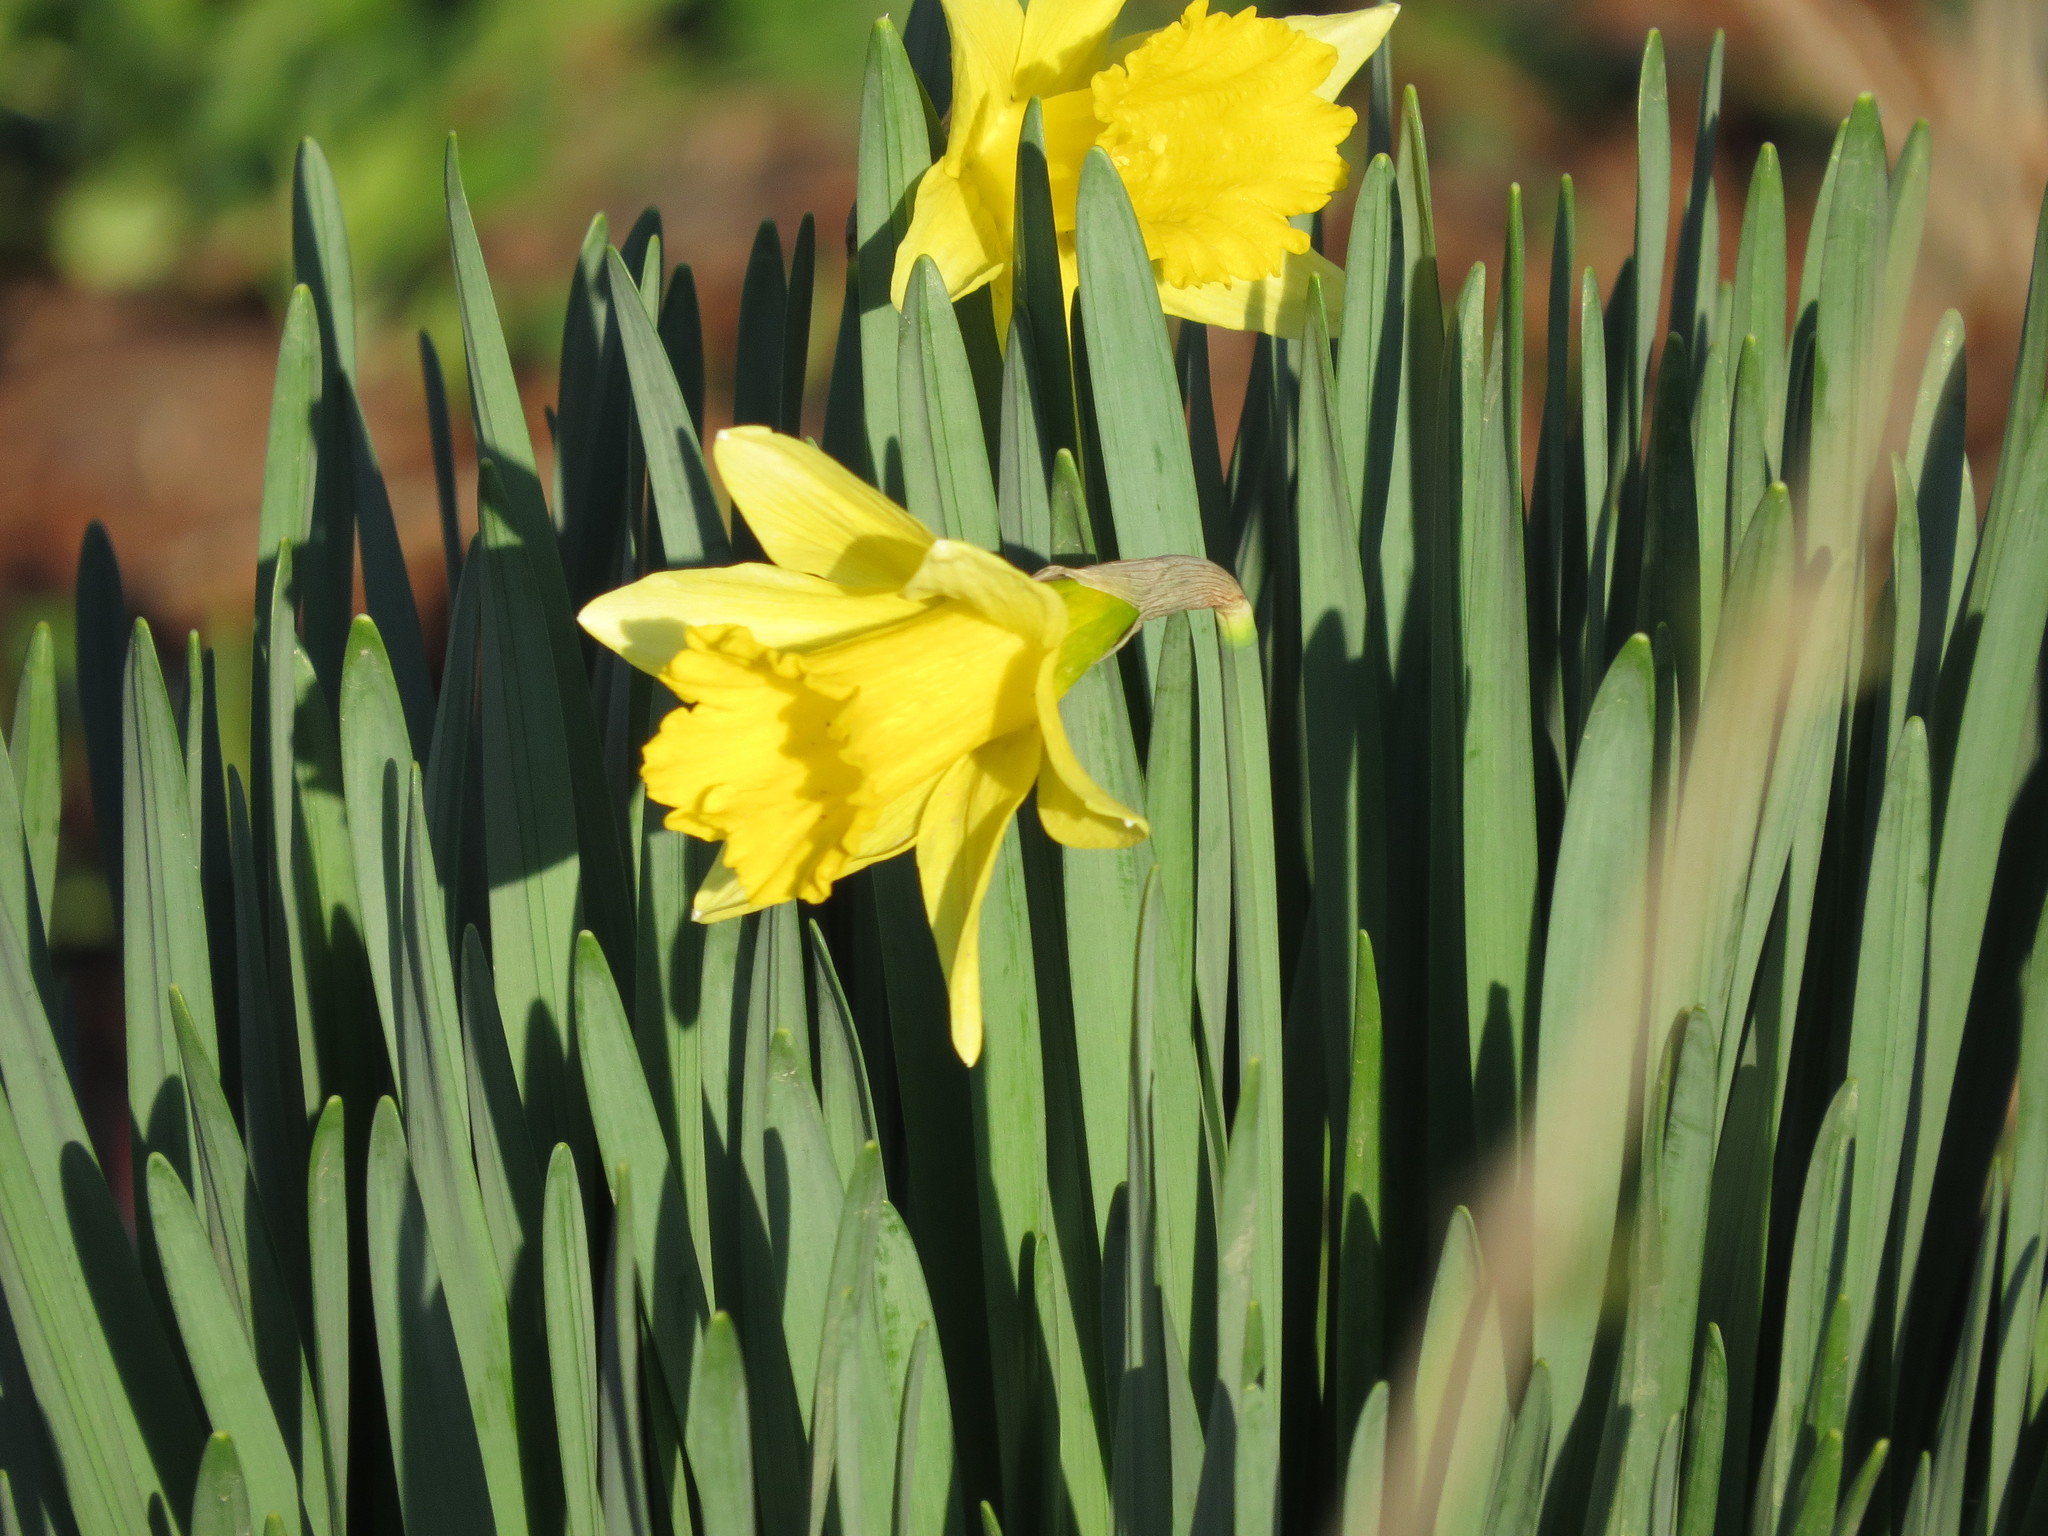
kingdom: Plantae
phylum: Tracheophyta
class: Liliopsida
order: Asparagales
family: Amaryllidaceae
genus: Narcissus
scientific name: Narcissus pseudonarcissus
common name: Daffodil
